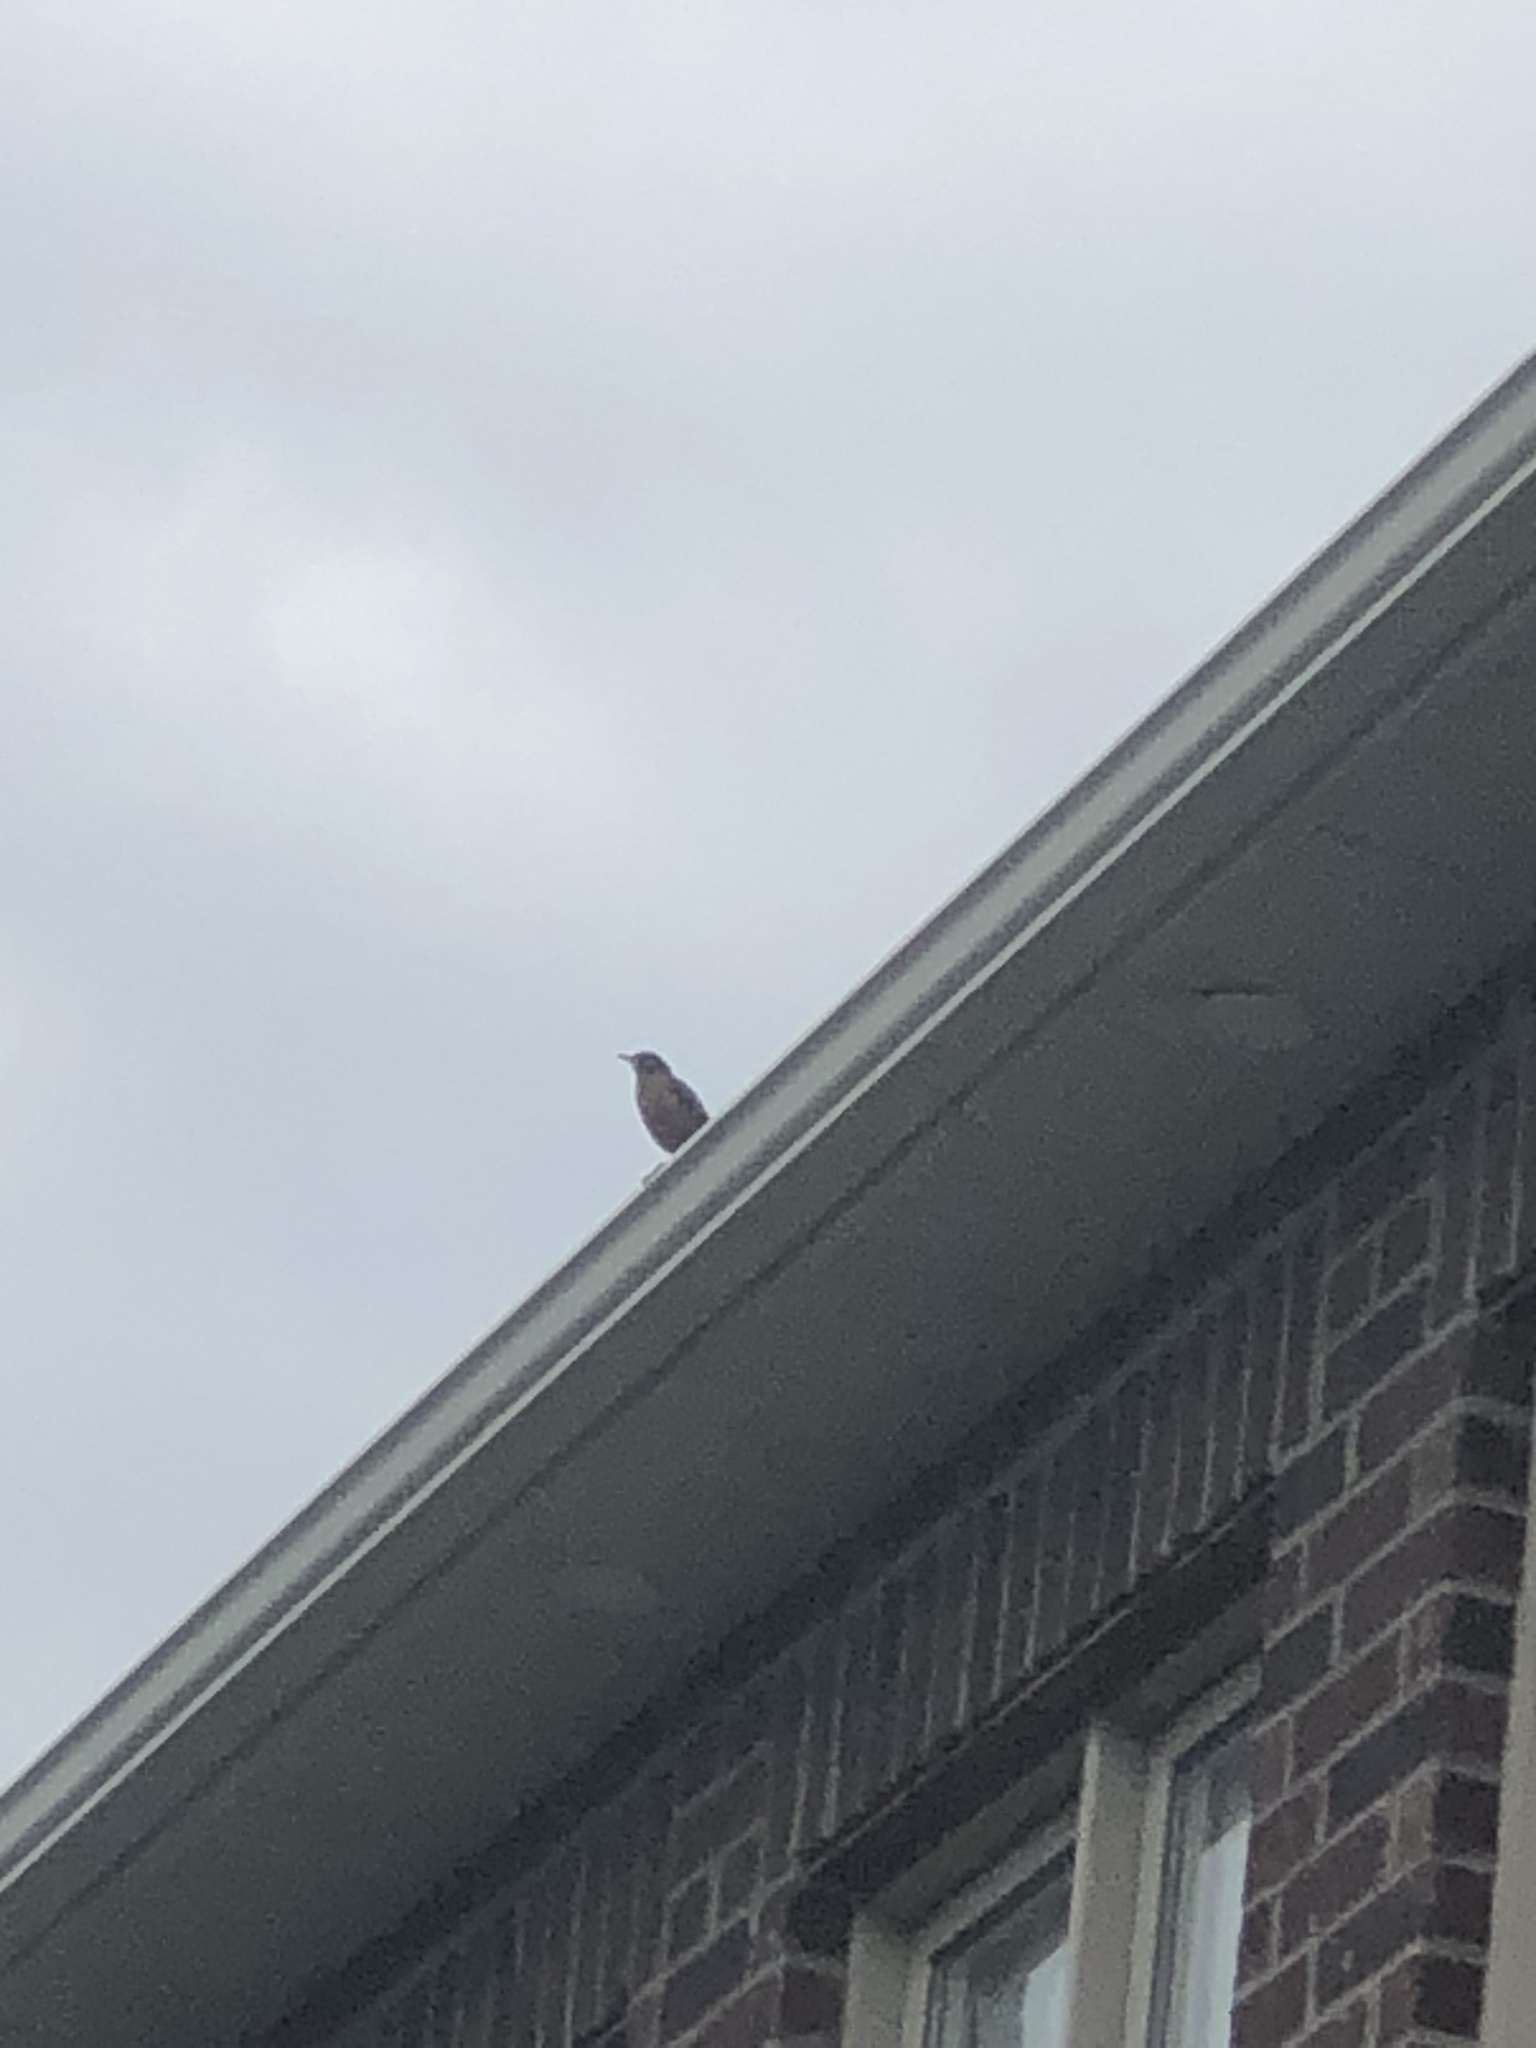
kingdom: Animalia
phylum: Chordata
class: Aves
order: Passeriformes
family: Turdidae
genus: Turdus
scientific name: Turdus migratorius
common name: American robin
